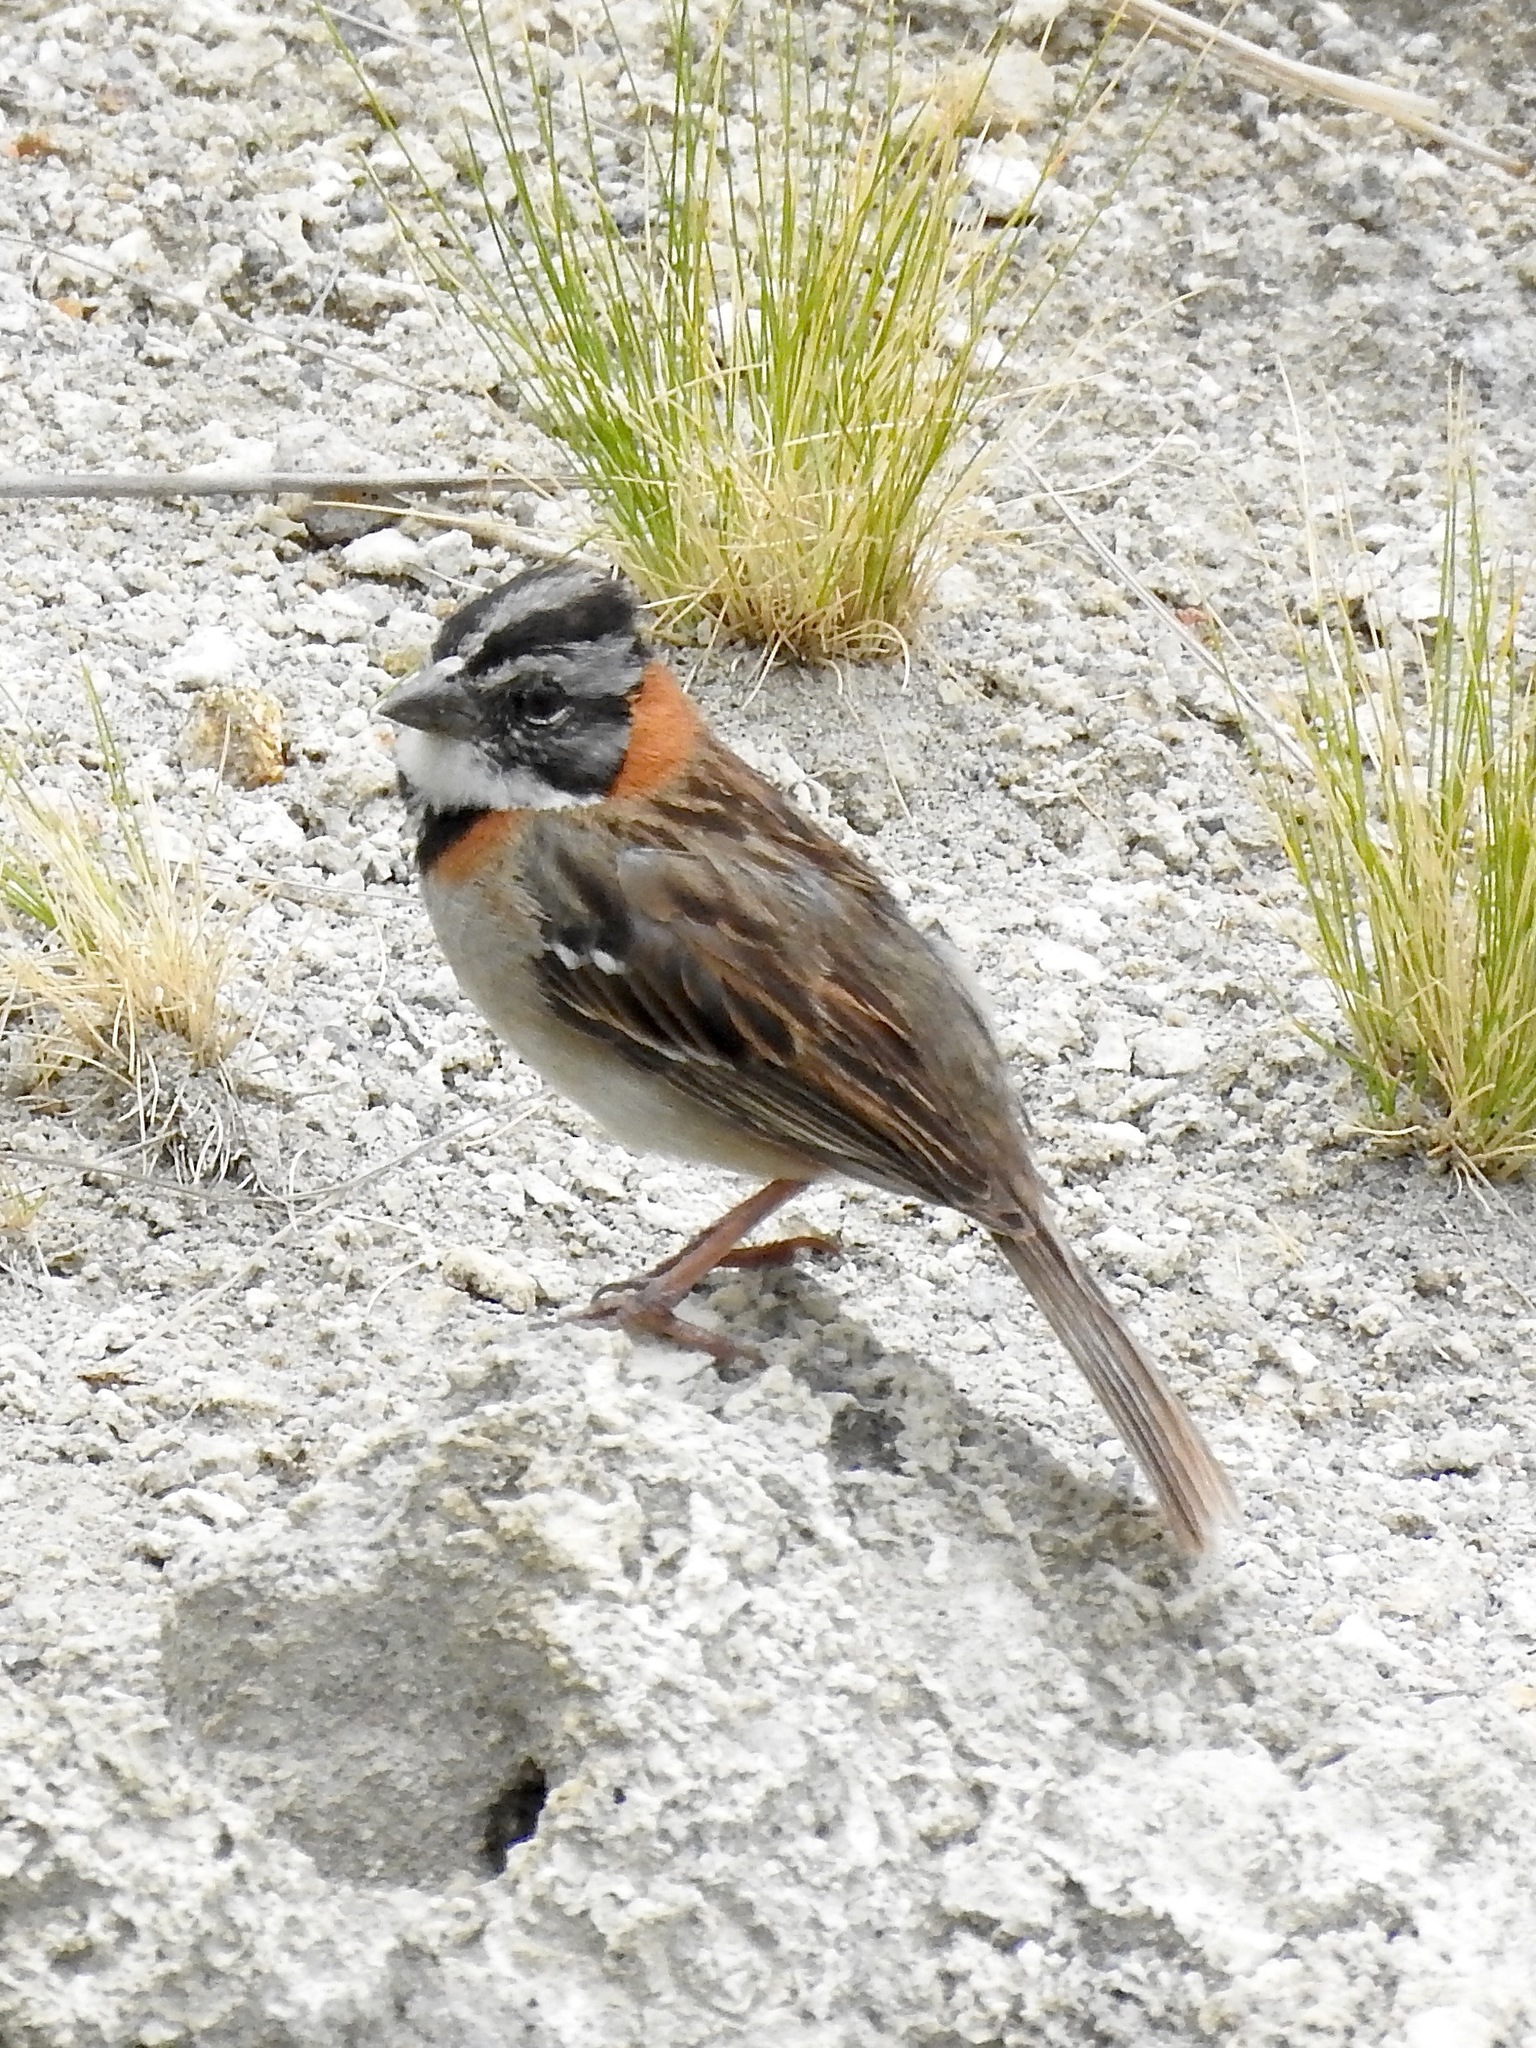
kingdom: Animalia
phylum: Chordata
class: Aves
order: Passeriformes
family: Passerellidae
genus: Zonotrichia
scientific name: Zonotrichia capensis
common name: Rufous-collared sparrow
